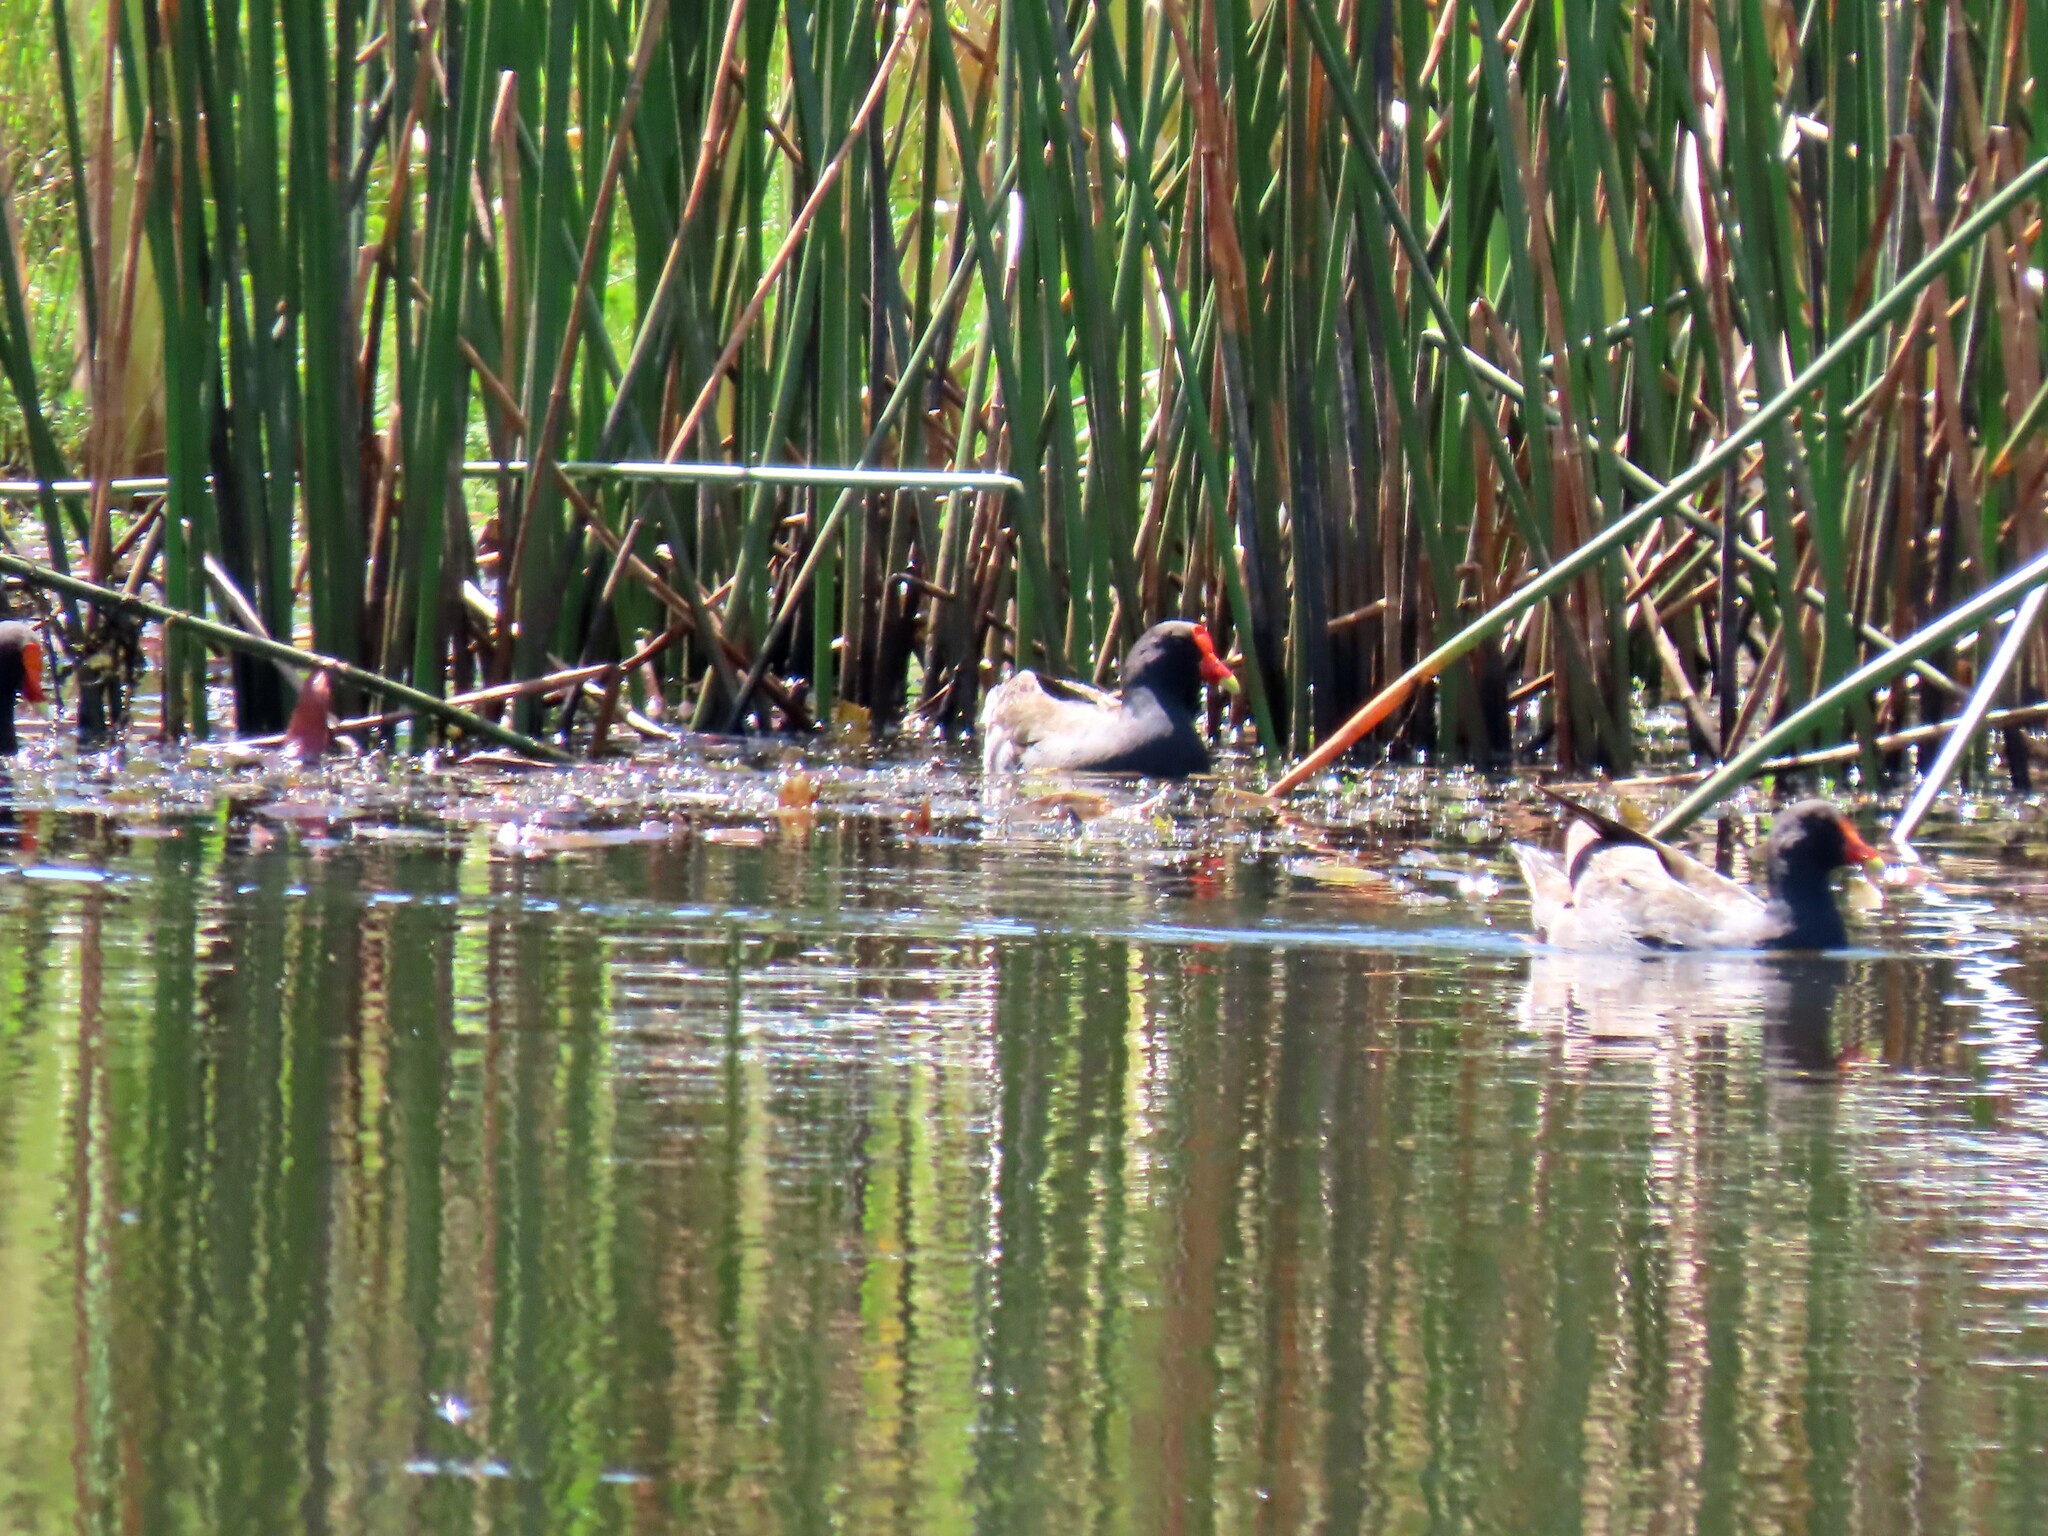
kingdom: Animalia
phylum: Chordata
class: Aves
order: Gruiformes
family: Rallidae
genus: Gallinula
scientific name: Gallinula tenebrosa
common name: Dusky moorhen
